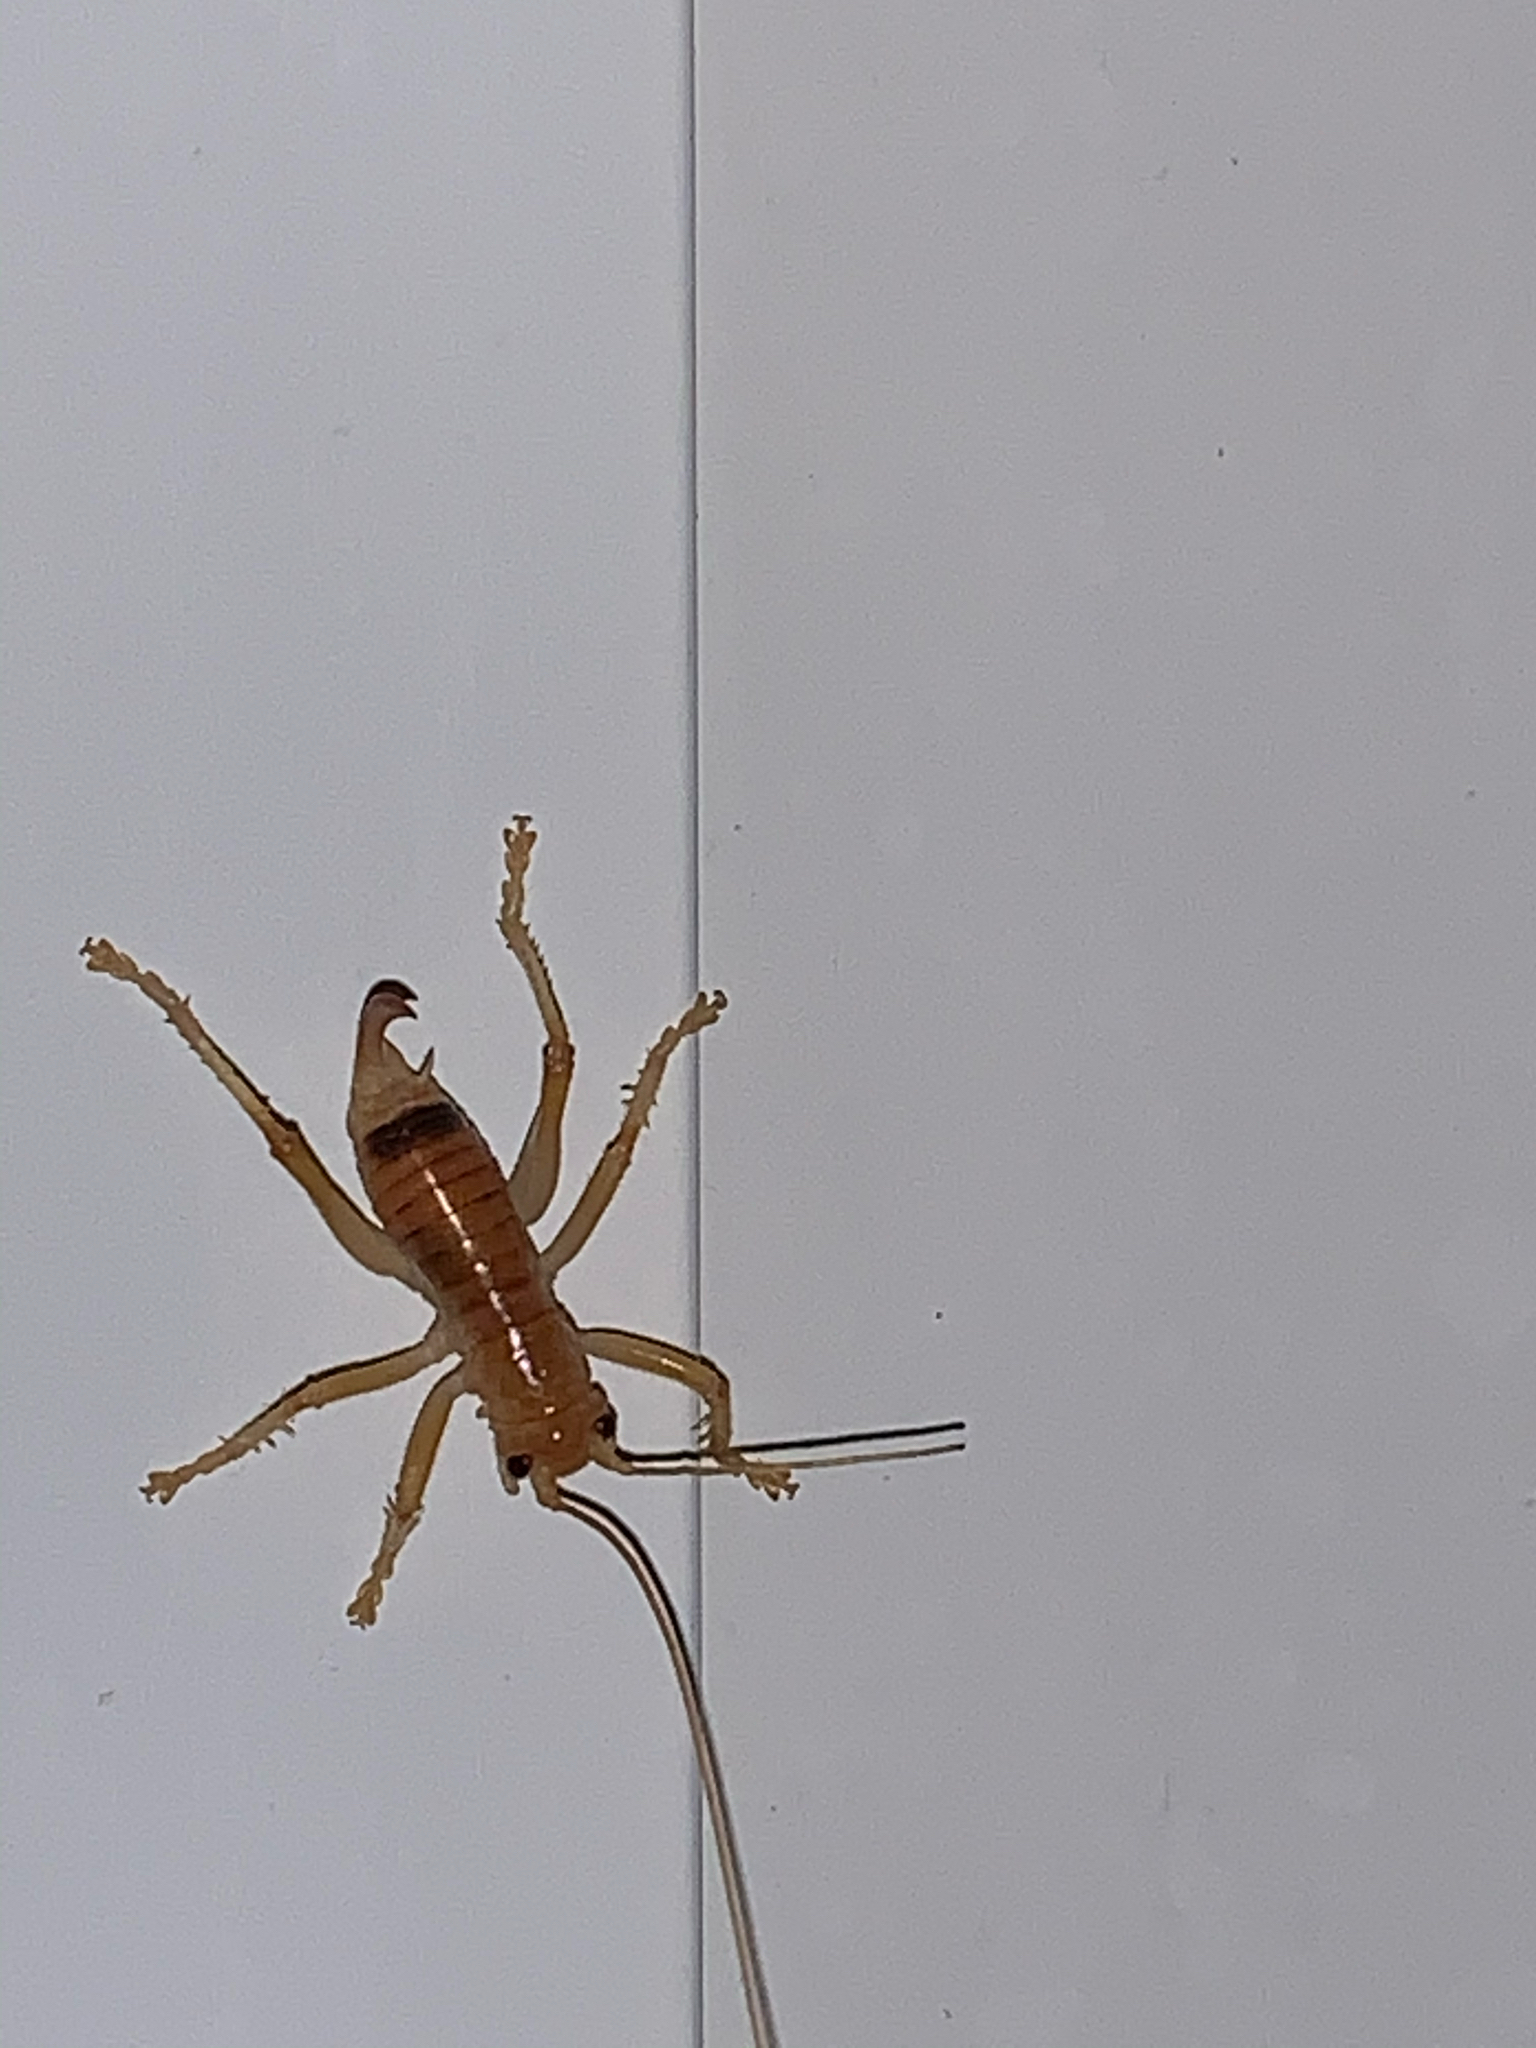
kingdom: Animalia
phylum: Arthropoda
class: Insecta
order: Orthoptera
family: Gryllacrididae
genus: Camptonotus
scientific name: Camptonotus carolinensis
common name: Carolina leaf-roller
